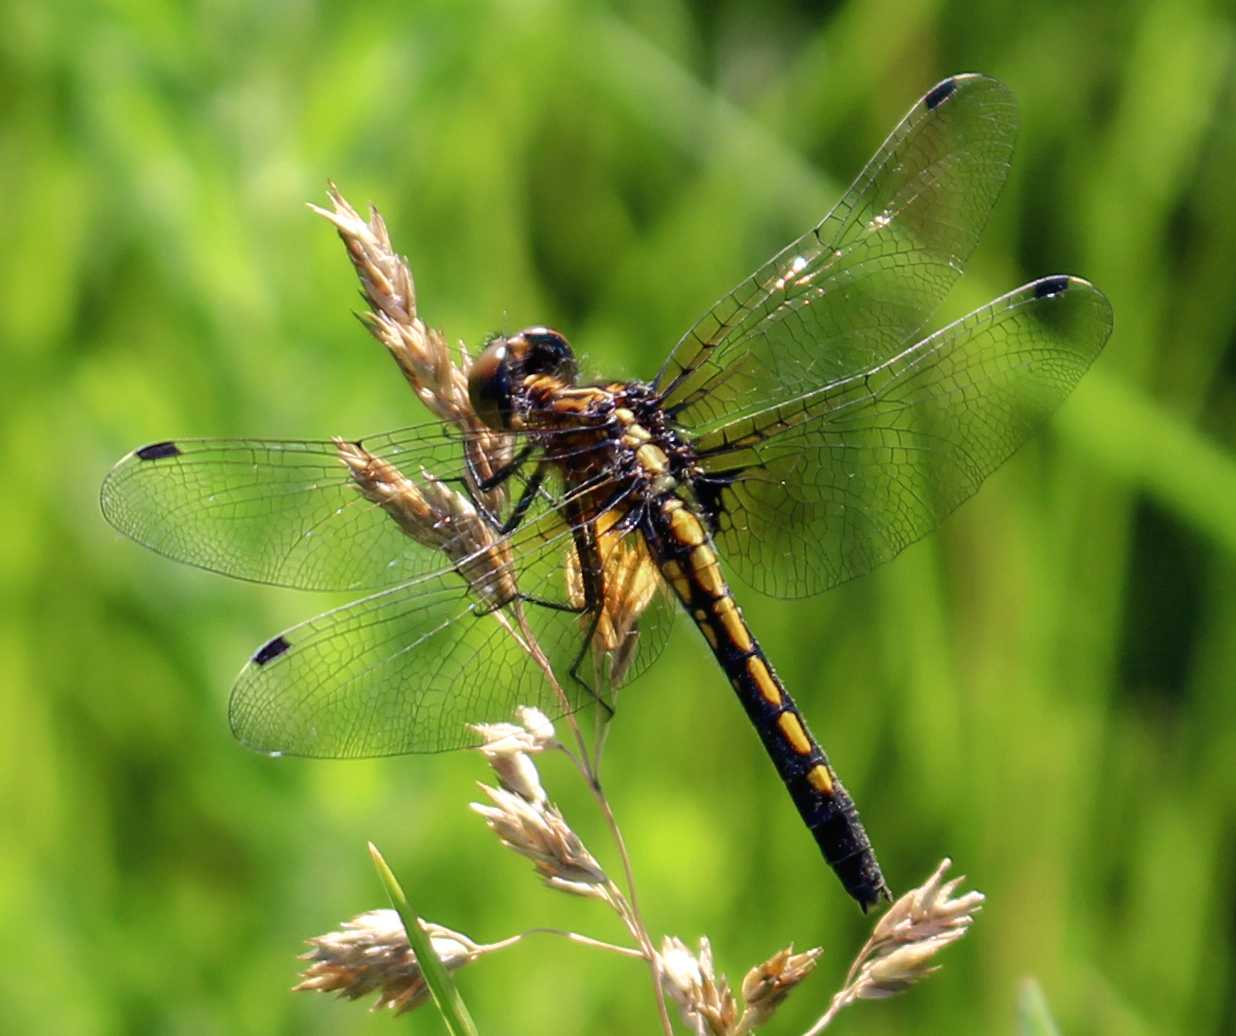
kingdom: Animalia
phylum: Arthropoda
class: Insecta
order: Odonata
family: Libellulidae
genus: Leucorrhinia
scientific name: Leucorrhinia intacta
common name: Dot-tailed whiteface
